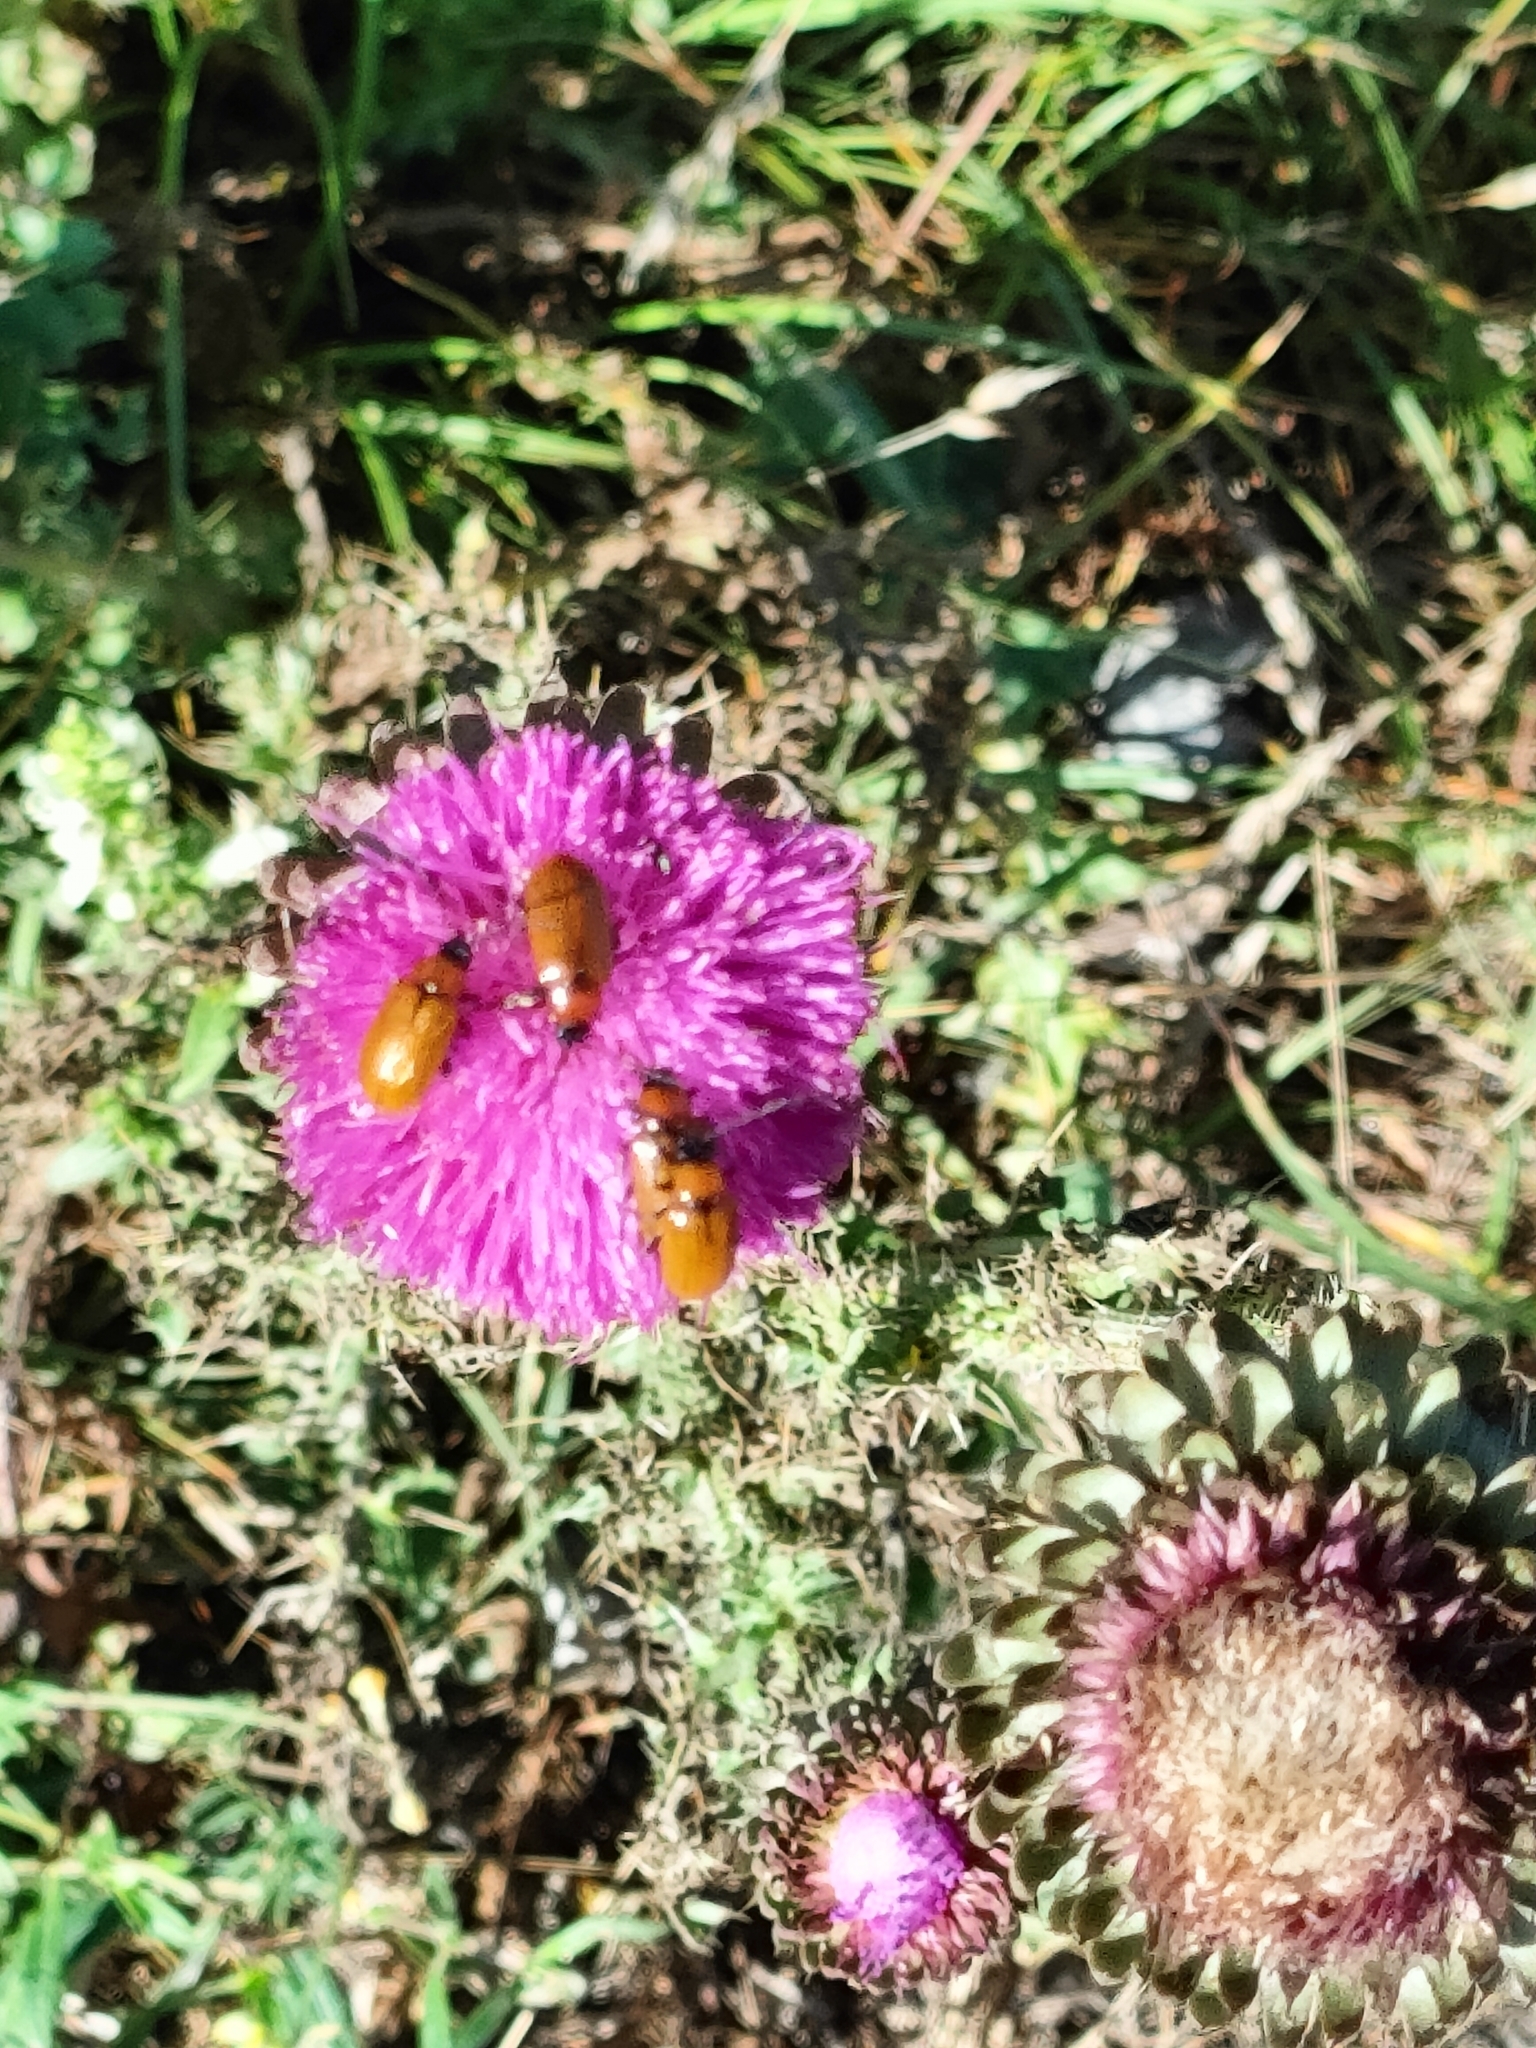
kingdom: Animalia
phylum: Arthropoda
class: Insecta
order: Coleoptera
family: Chrysomelidae
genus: Exosoma
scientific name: Exosoma lusitanicum
